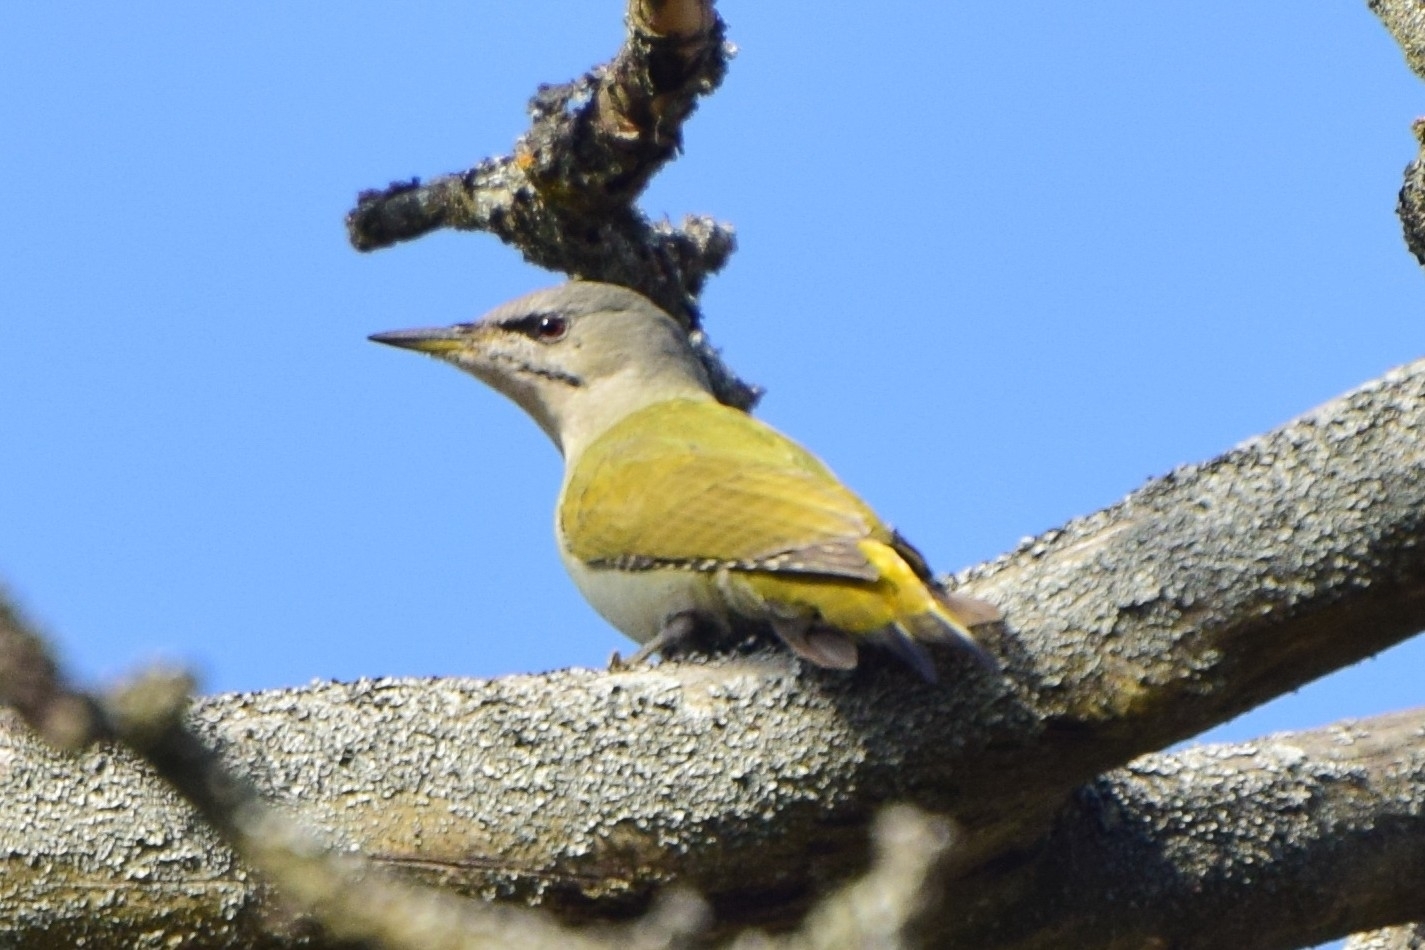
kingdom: Animalia
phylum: Chordata
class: Aves
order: Piciformes
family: Picidae
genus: Picus
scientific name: Picus canus
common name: Grey-headed woodpecker
